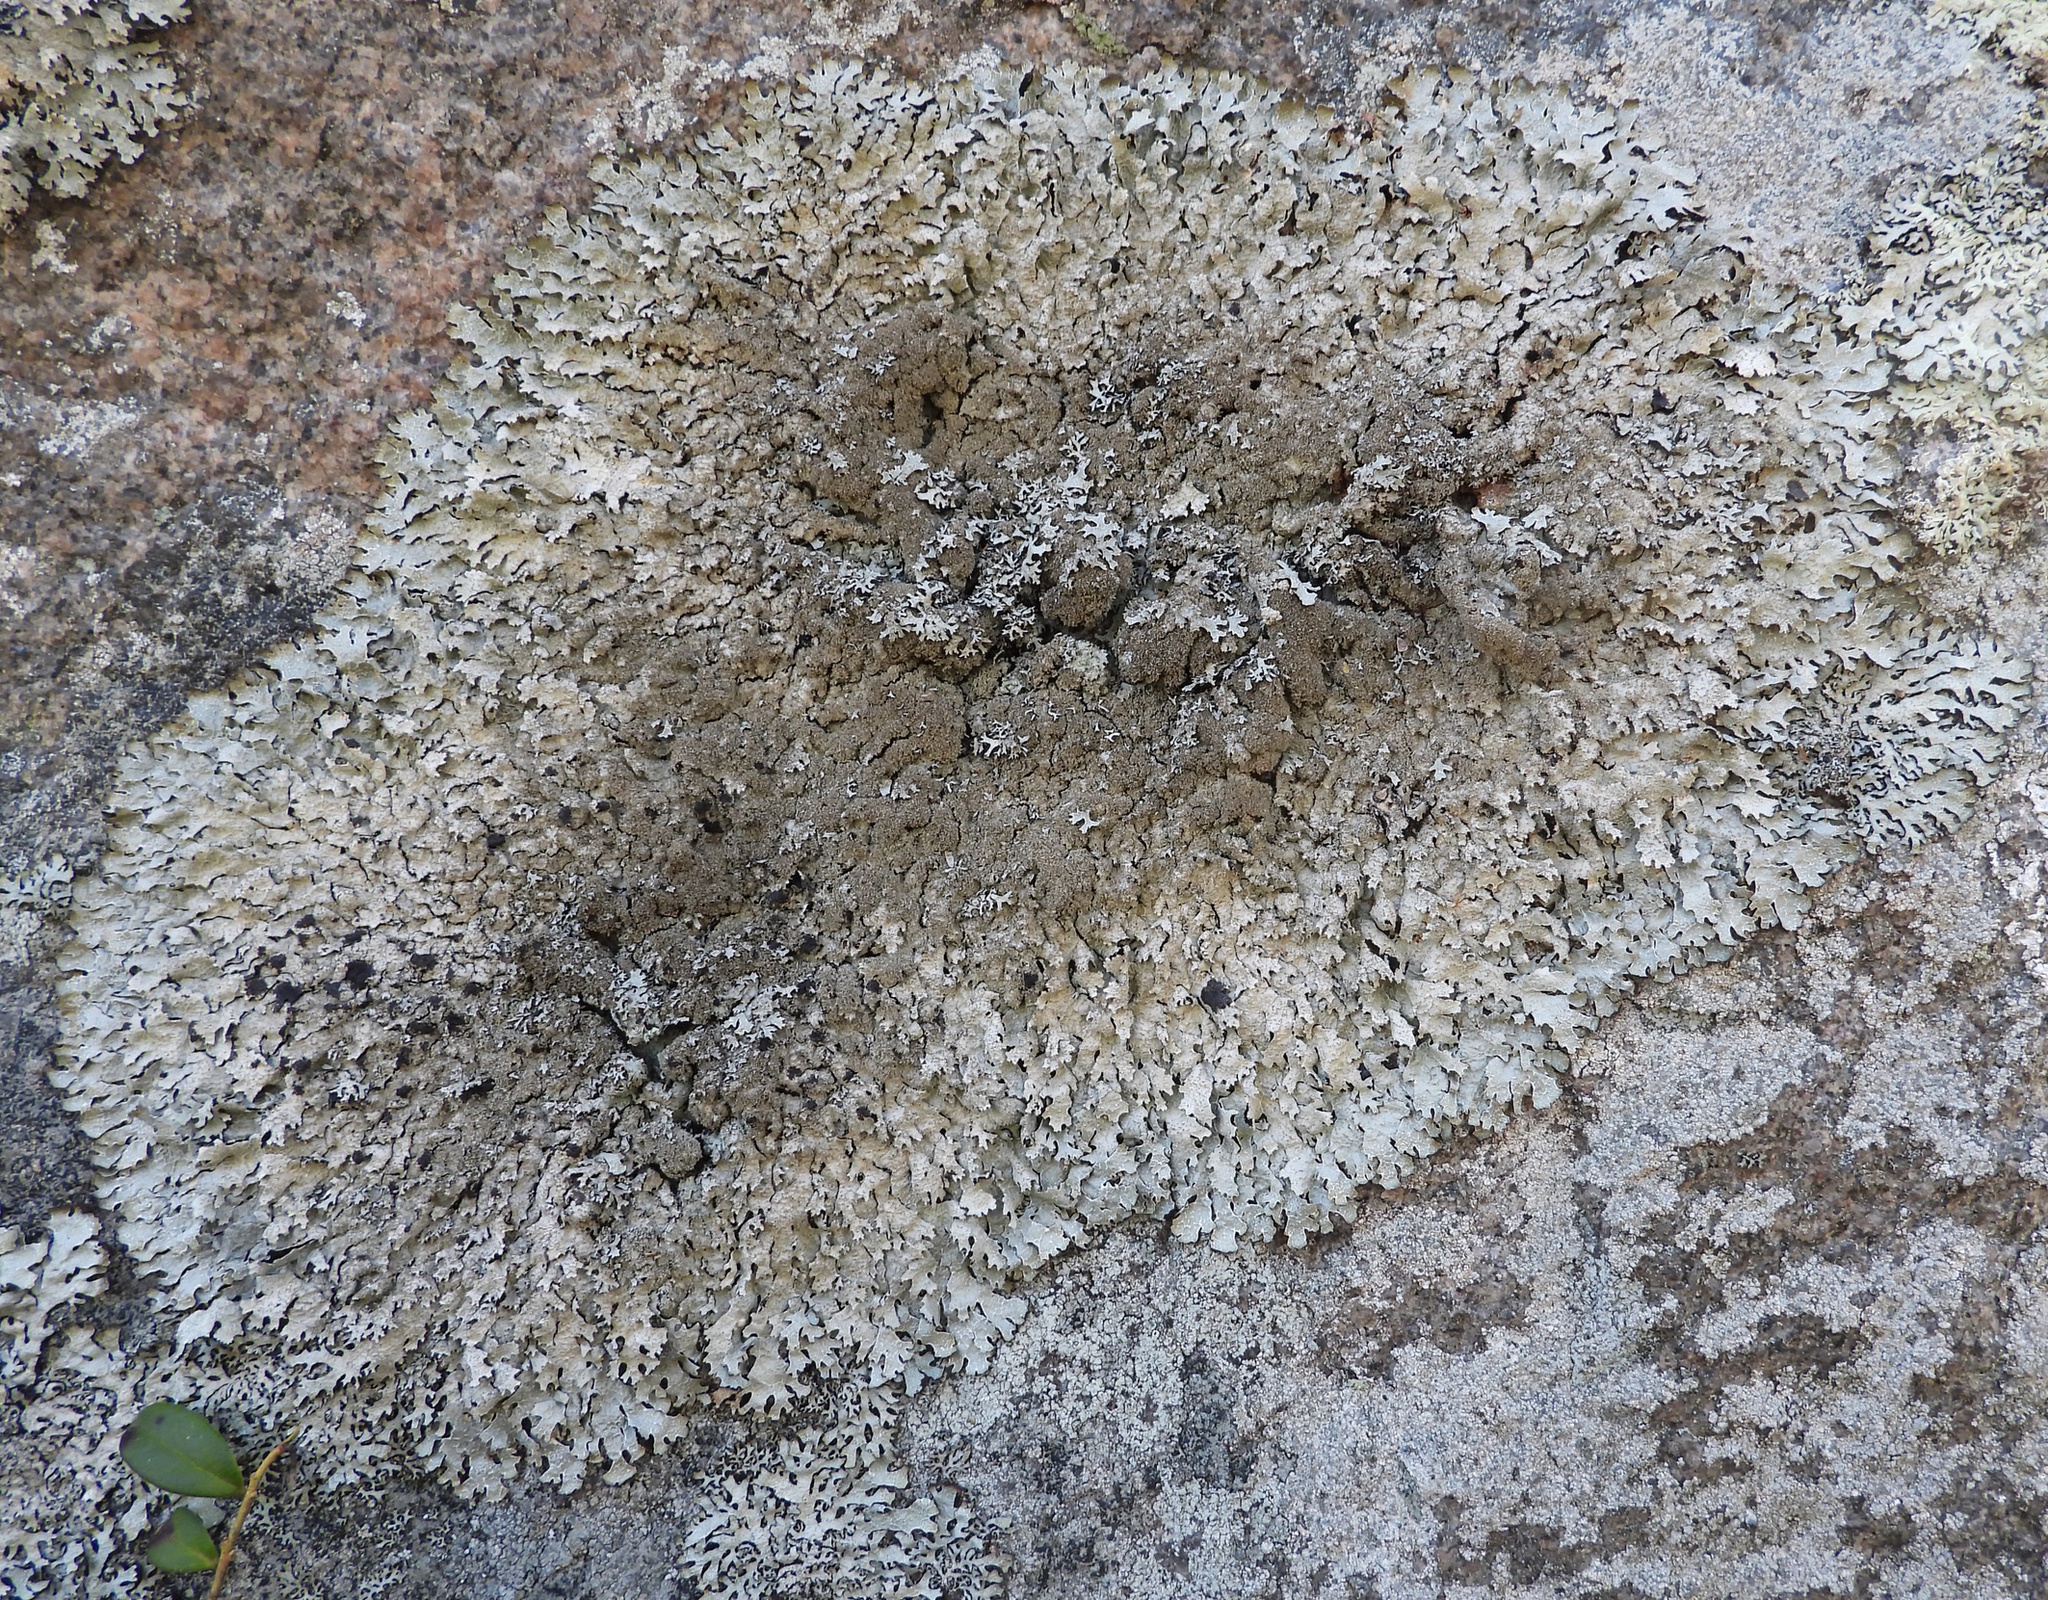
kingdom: Fungi
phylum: Ascomycota
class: Lecanoromycetes
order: Lecanorales
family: Parmeliaceae
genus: Parmelia
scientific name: Parmelia saxatilis
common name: Salted shield lichen
